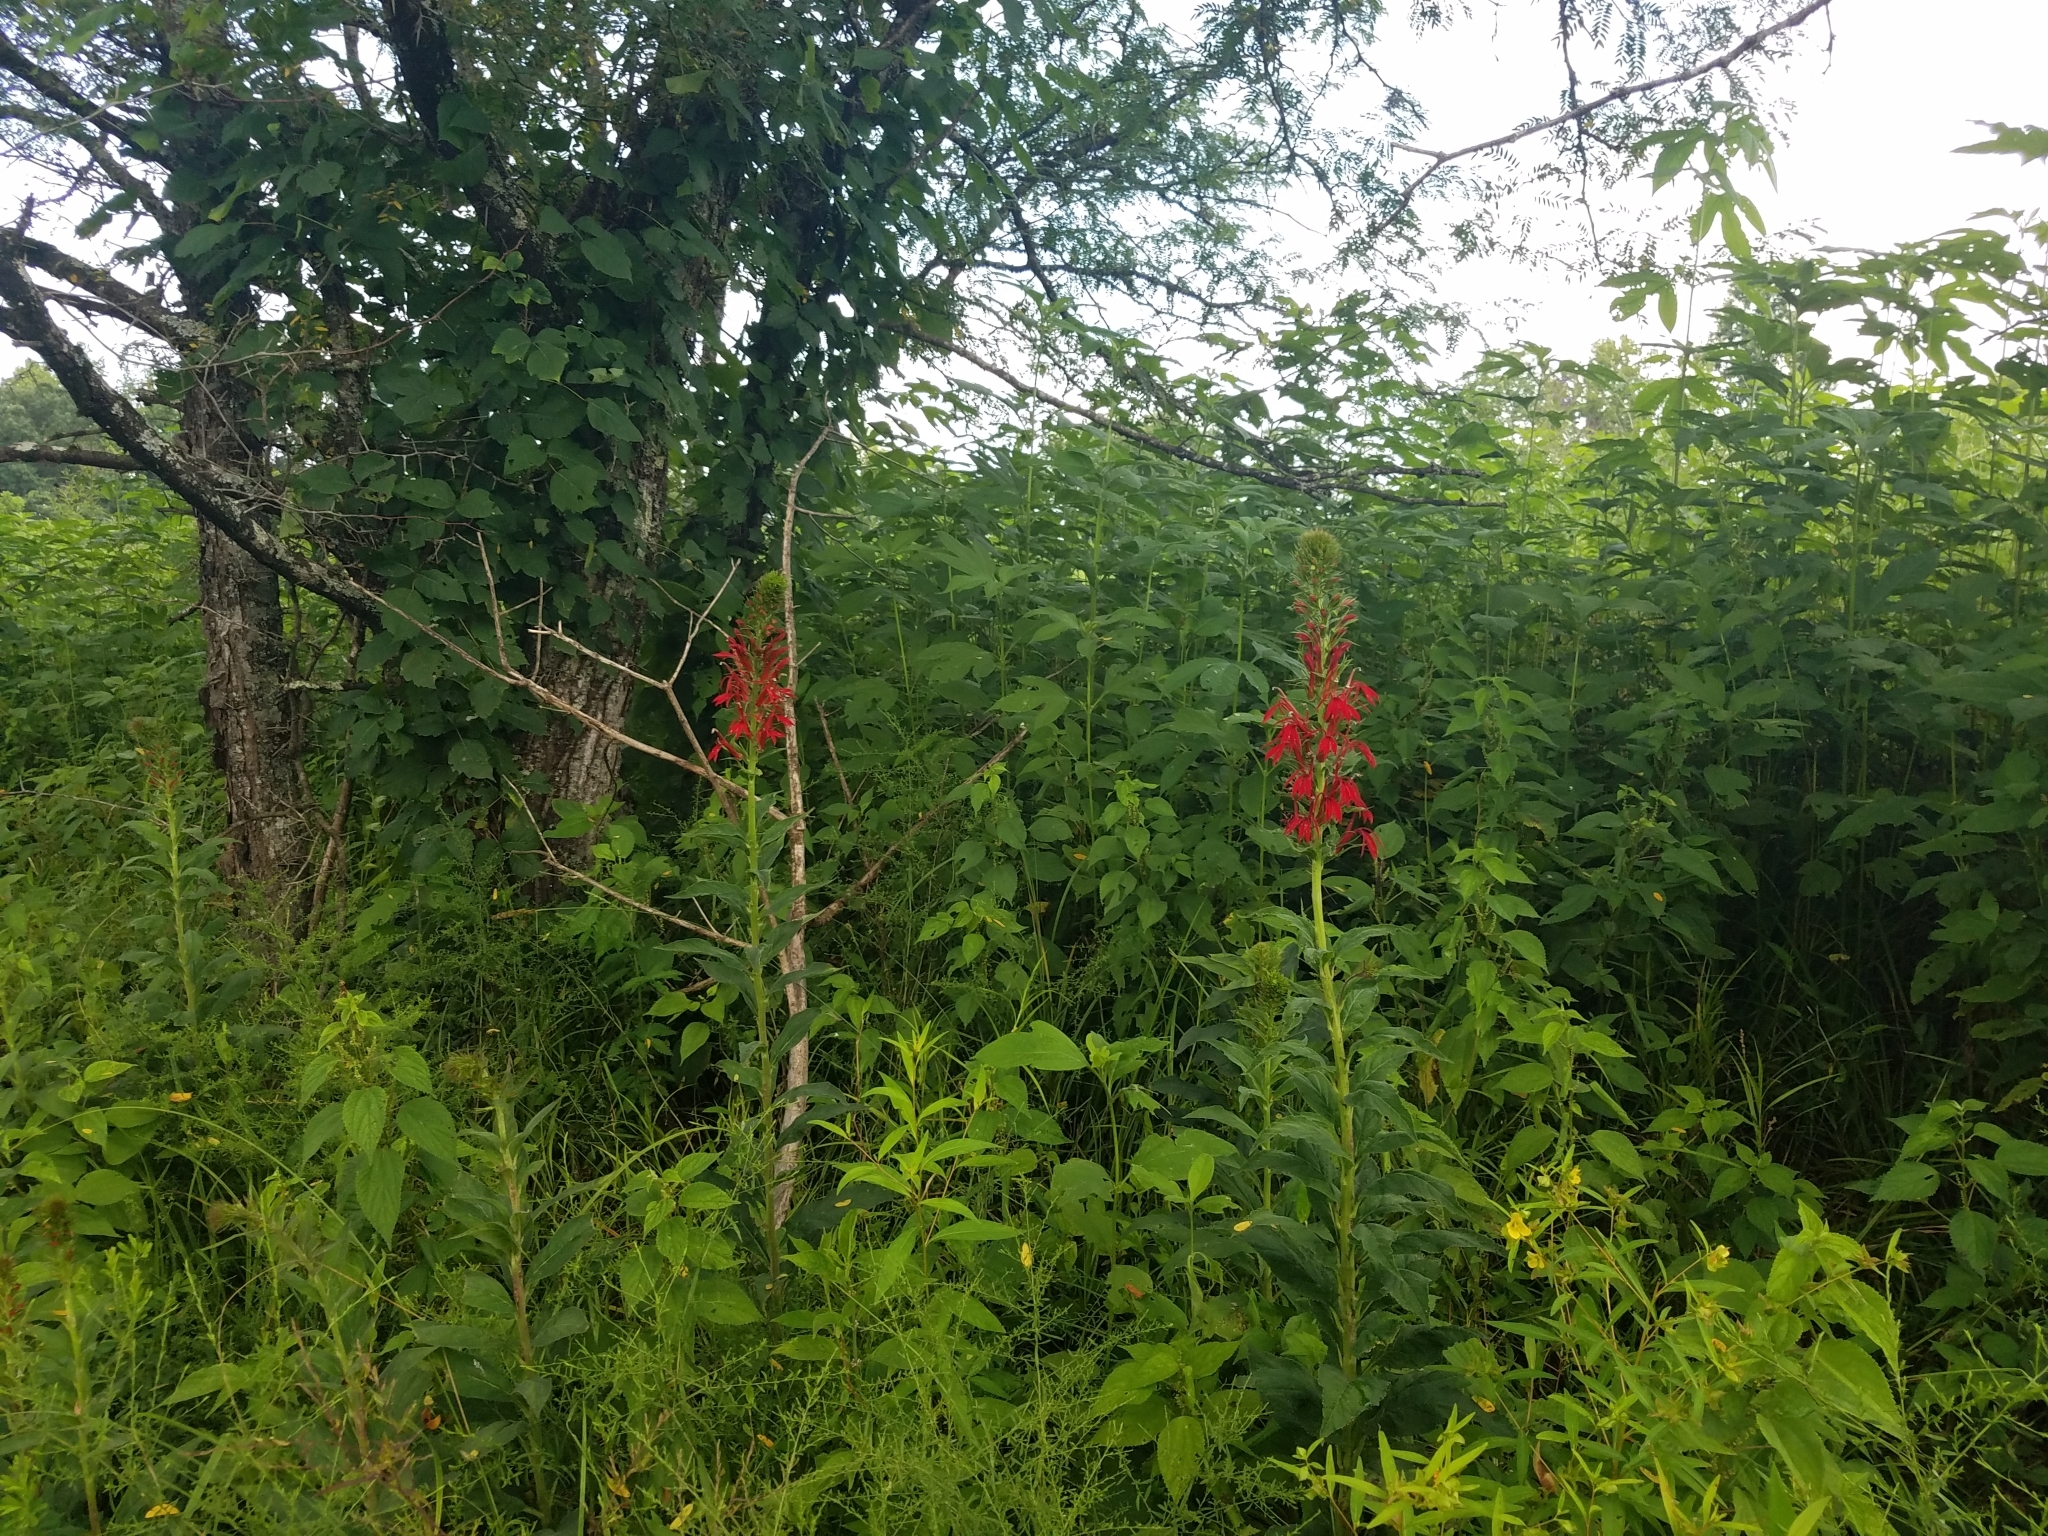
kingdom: Plantae
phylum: Tracheophyta
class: Magnoliopsida
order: Asterales
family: Campanulaceae
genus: Lobelia
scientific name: Lobelia cardinalis
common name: Cardinal flower
